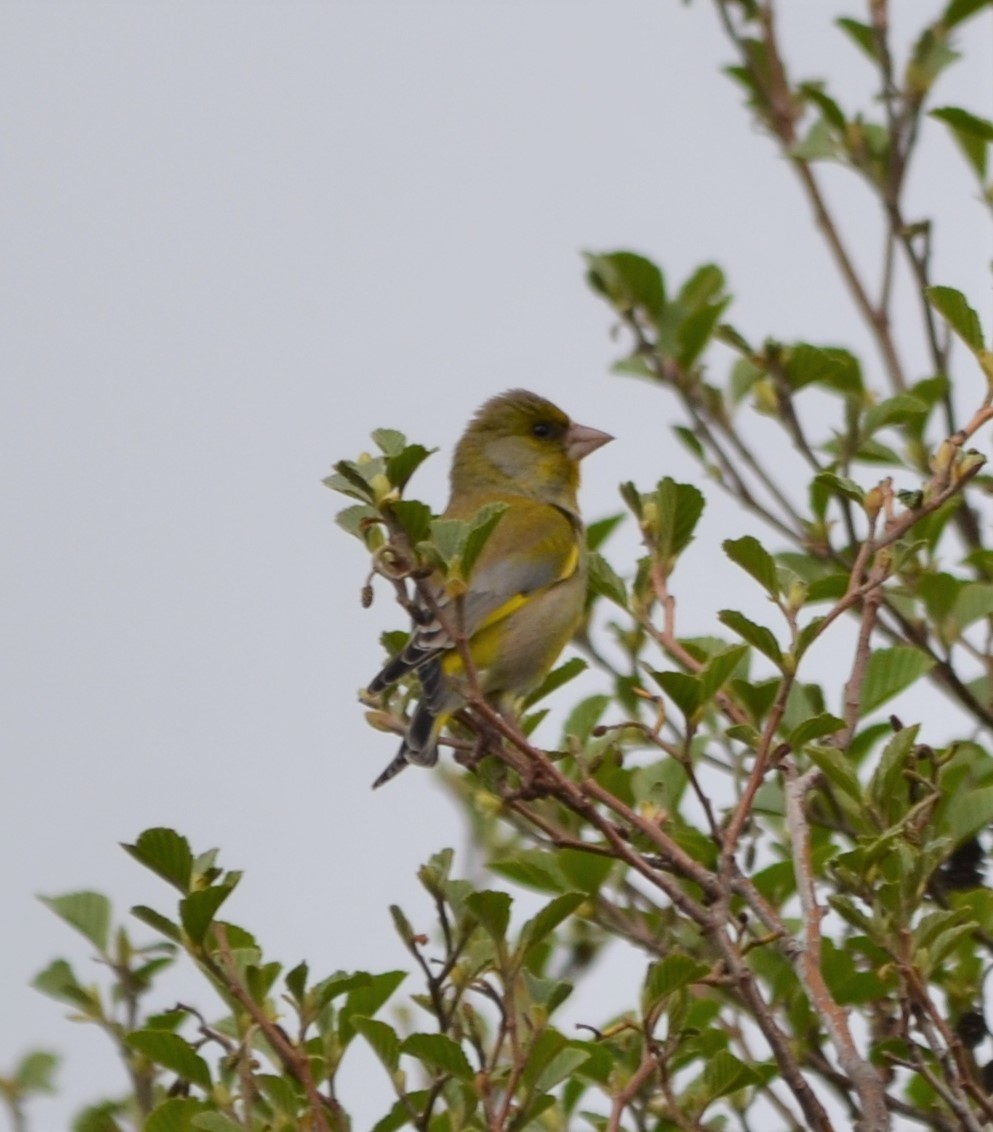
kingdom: Plantae
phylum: Tracheophyta
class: Liliopsida
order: Poales
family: Poaceae
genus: Chloris
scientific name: Chloris chloris
